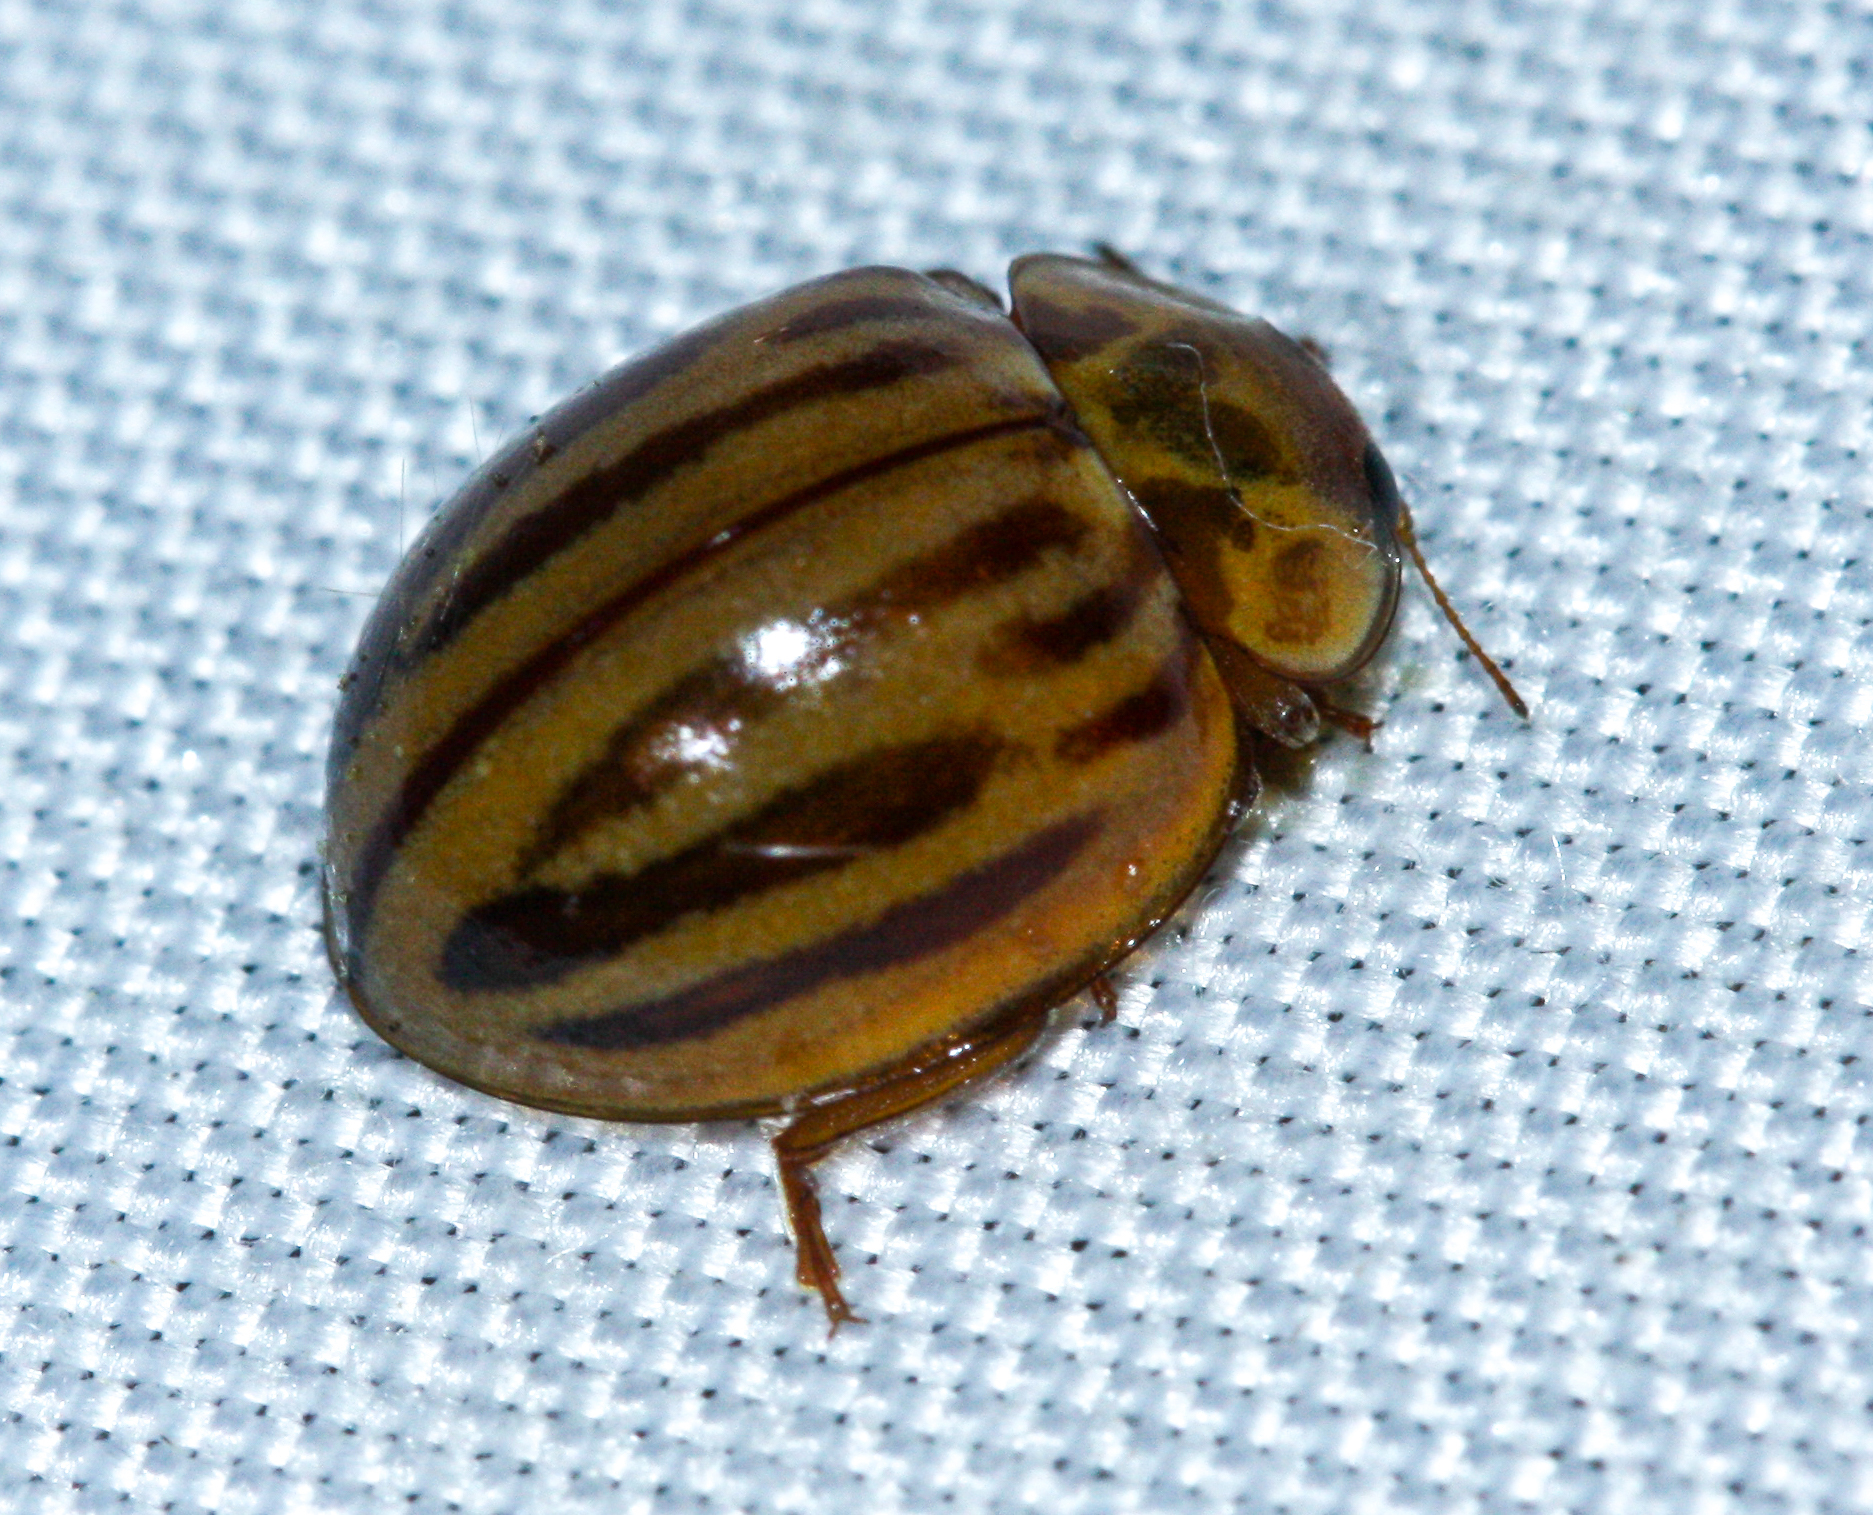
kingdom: Animalia
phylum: Arthropoda
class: Insecta
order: Coleoptera
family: Coccinellidae
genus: Myzia
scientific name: Myzia interrupta
